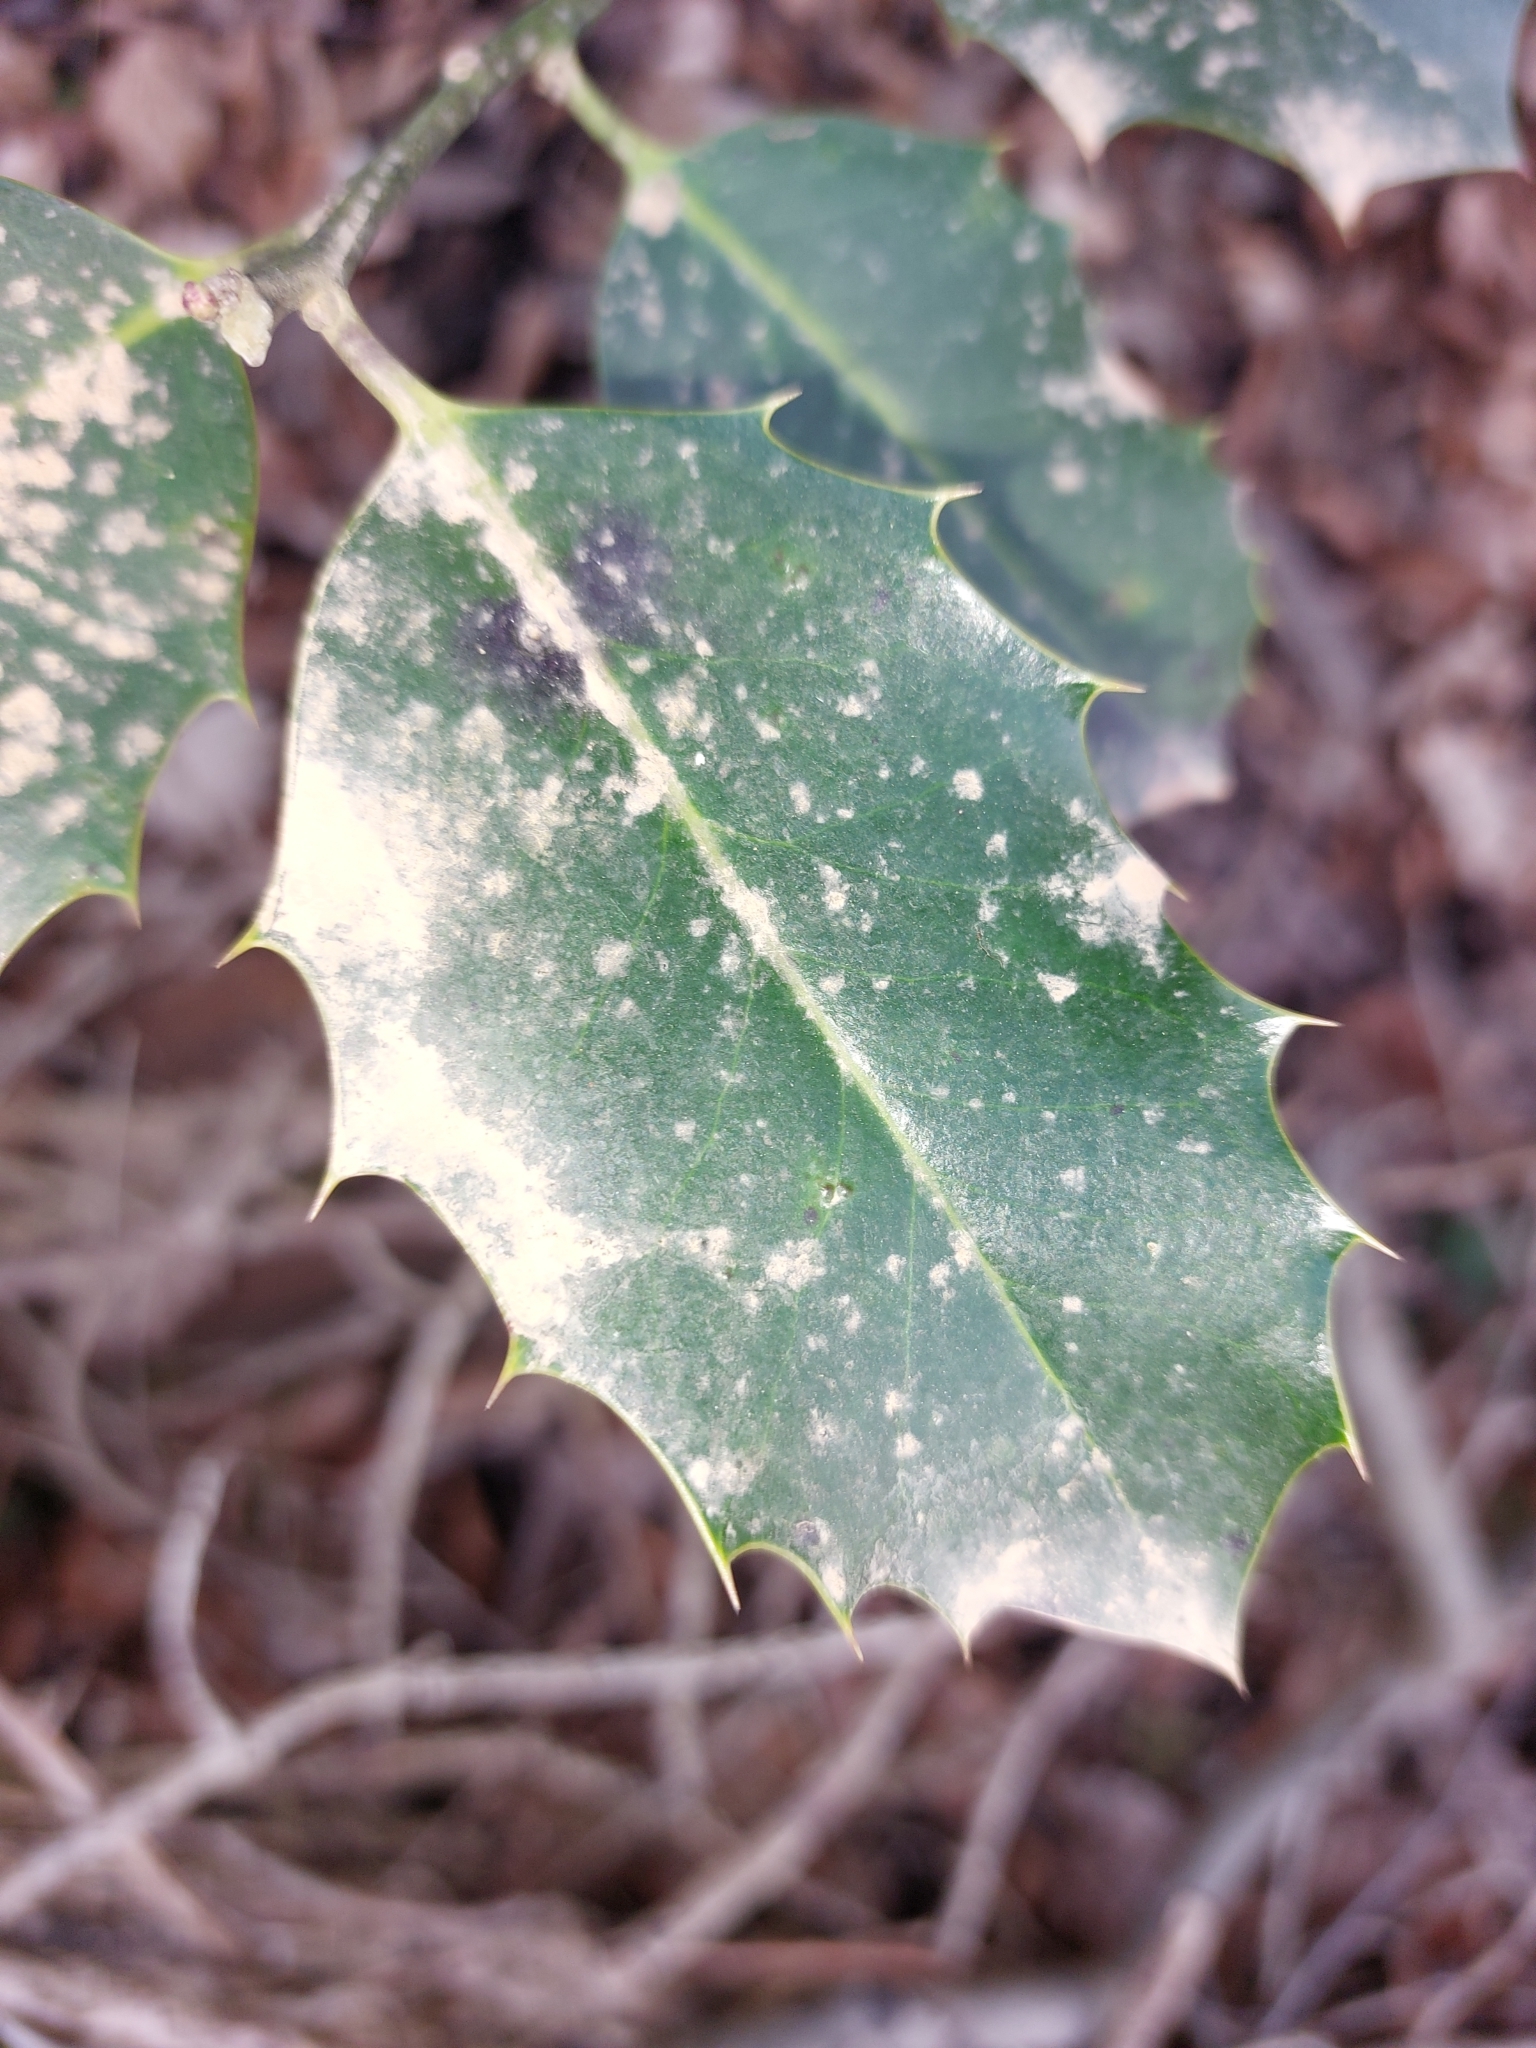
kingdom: Plantae
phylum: Tracheophyta
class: Magnoliopsida
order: Aquifoliales
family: Aquifoliaceae
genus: Ilex
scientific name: Ilex aquifolium
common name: English holly
